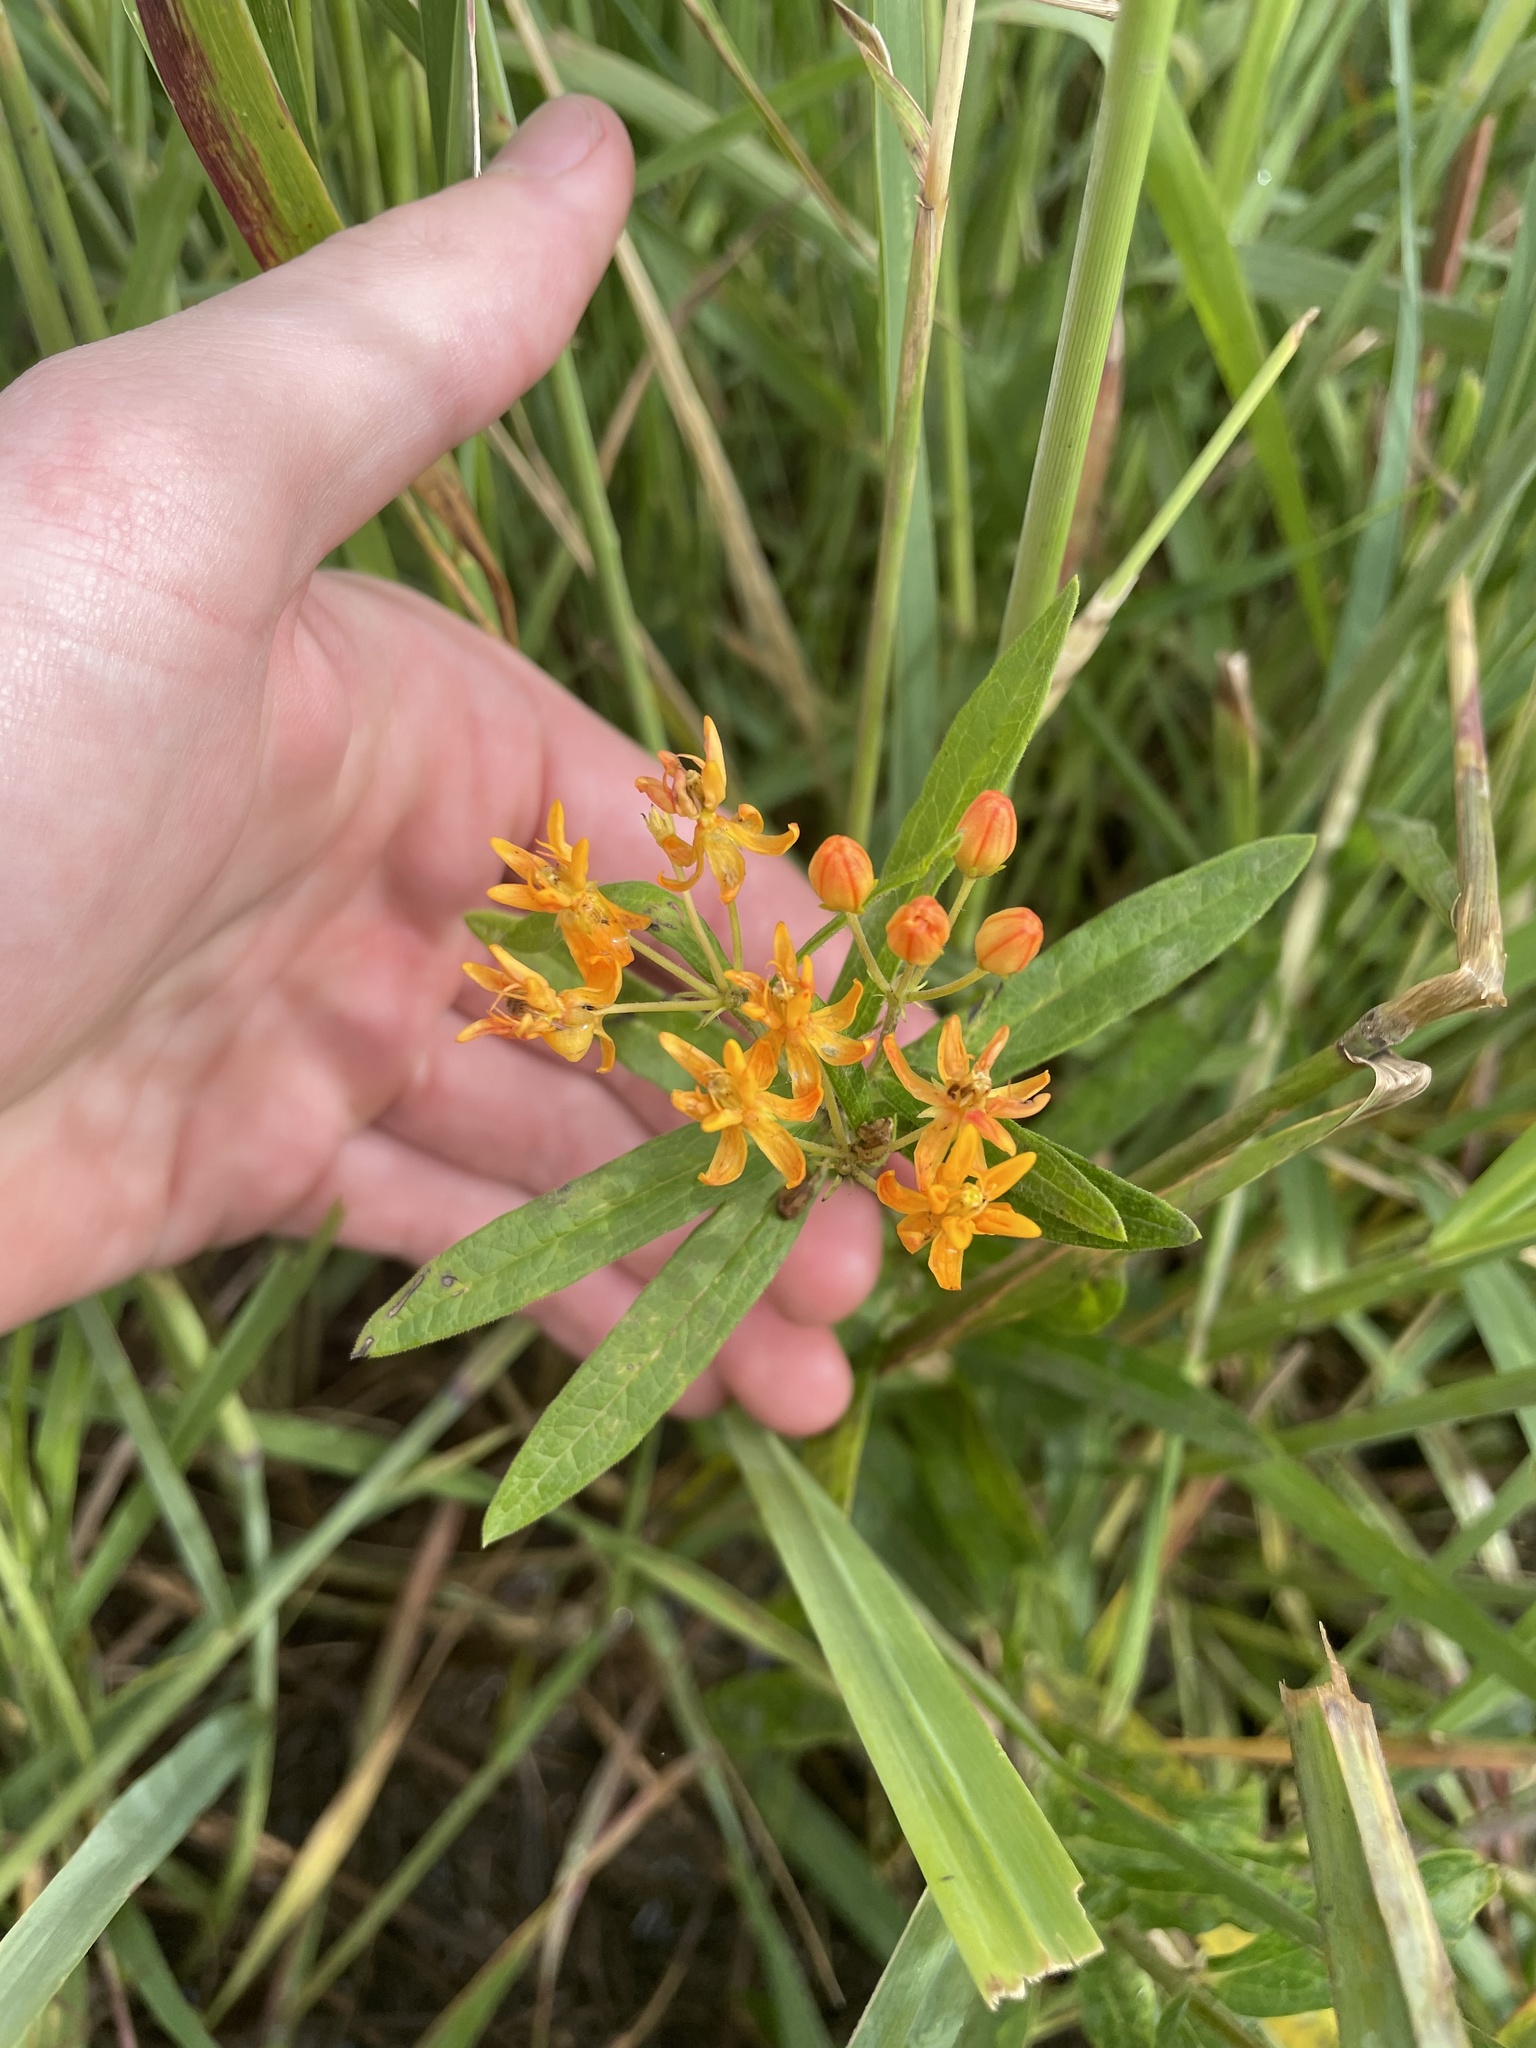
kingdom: Plantae
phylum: Tracheophyta
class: Magnoliopsida
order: Gentianales
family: Apocynaceae
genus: Asclepias
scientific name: Asclepias tuberosa
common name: Butterfly milkweed
